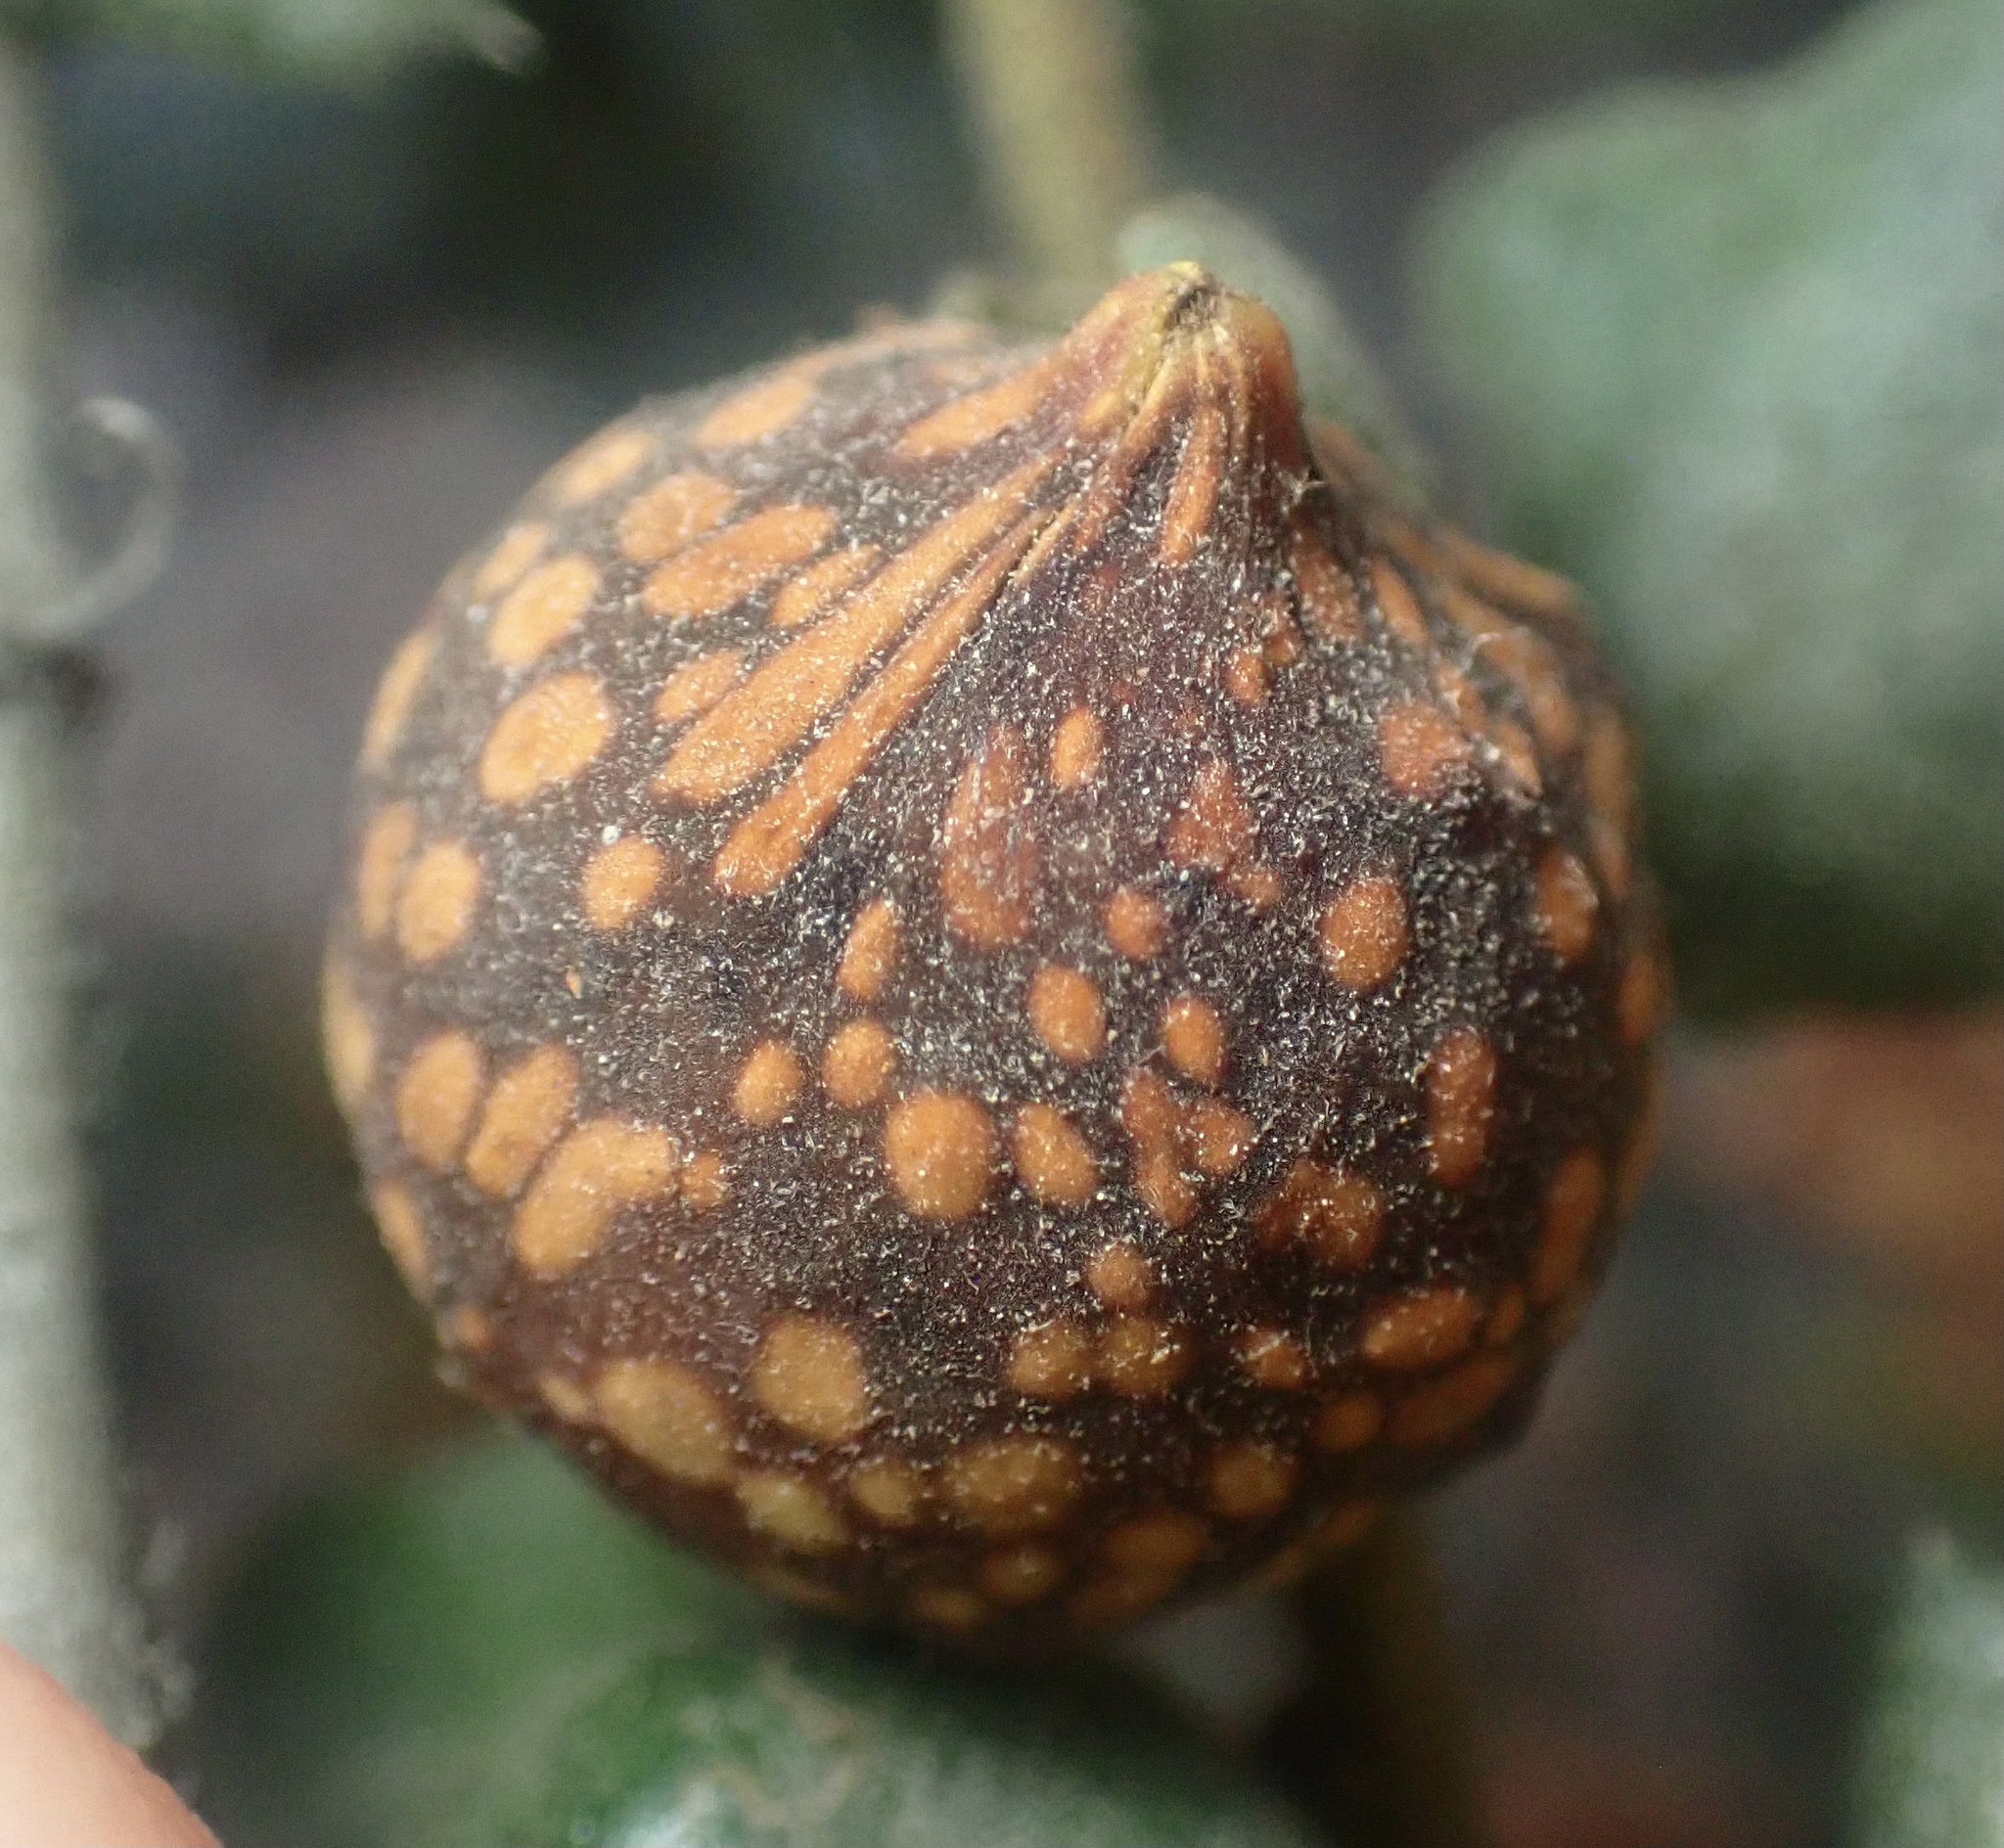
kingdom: Animalia
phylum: Arthropoda
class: Insecta
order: Hymenoptera
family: Cynipidae
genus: Burnettweldia
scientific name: Burnettweldia
